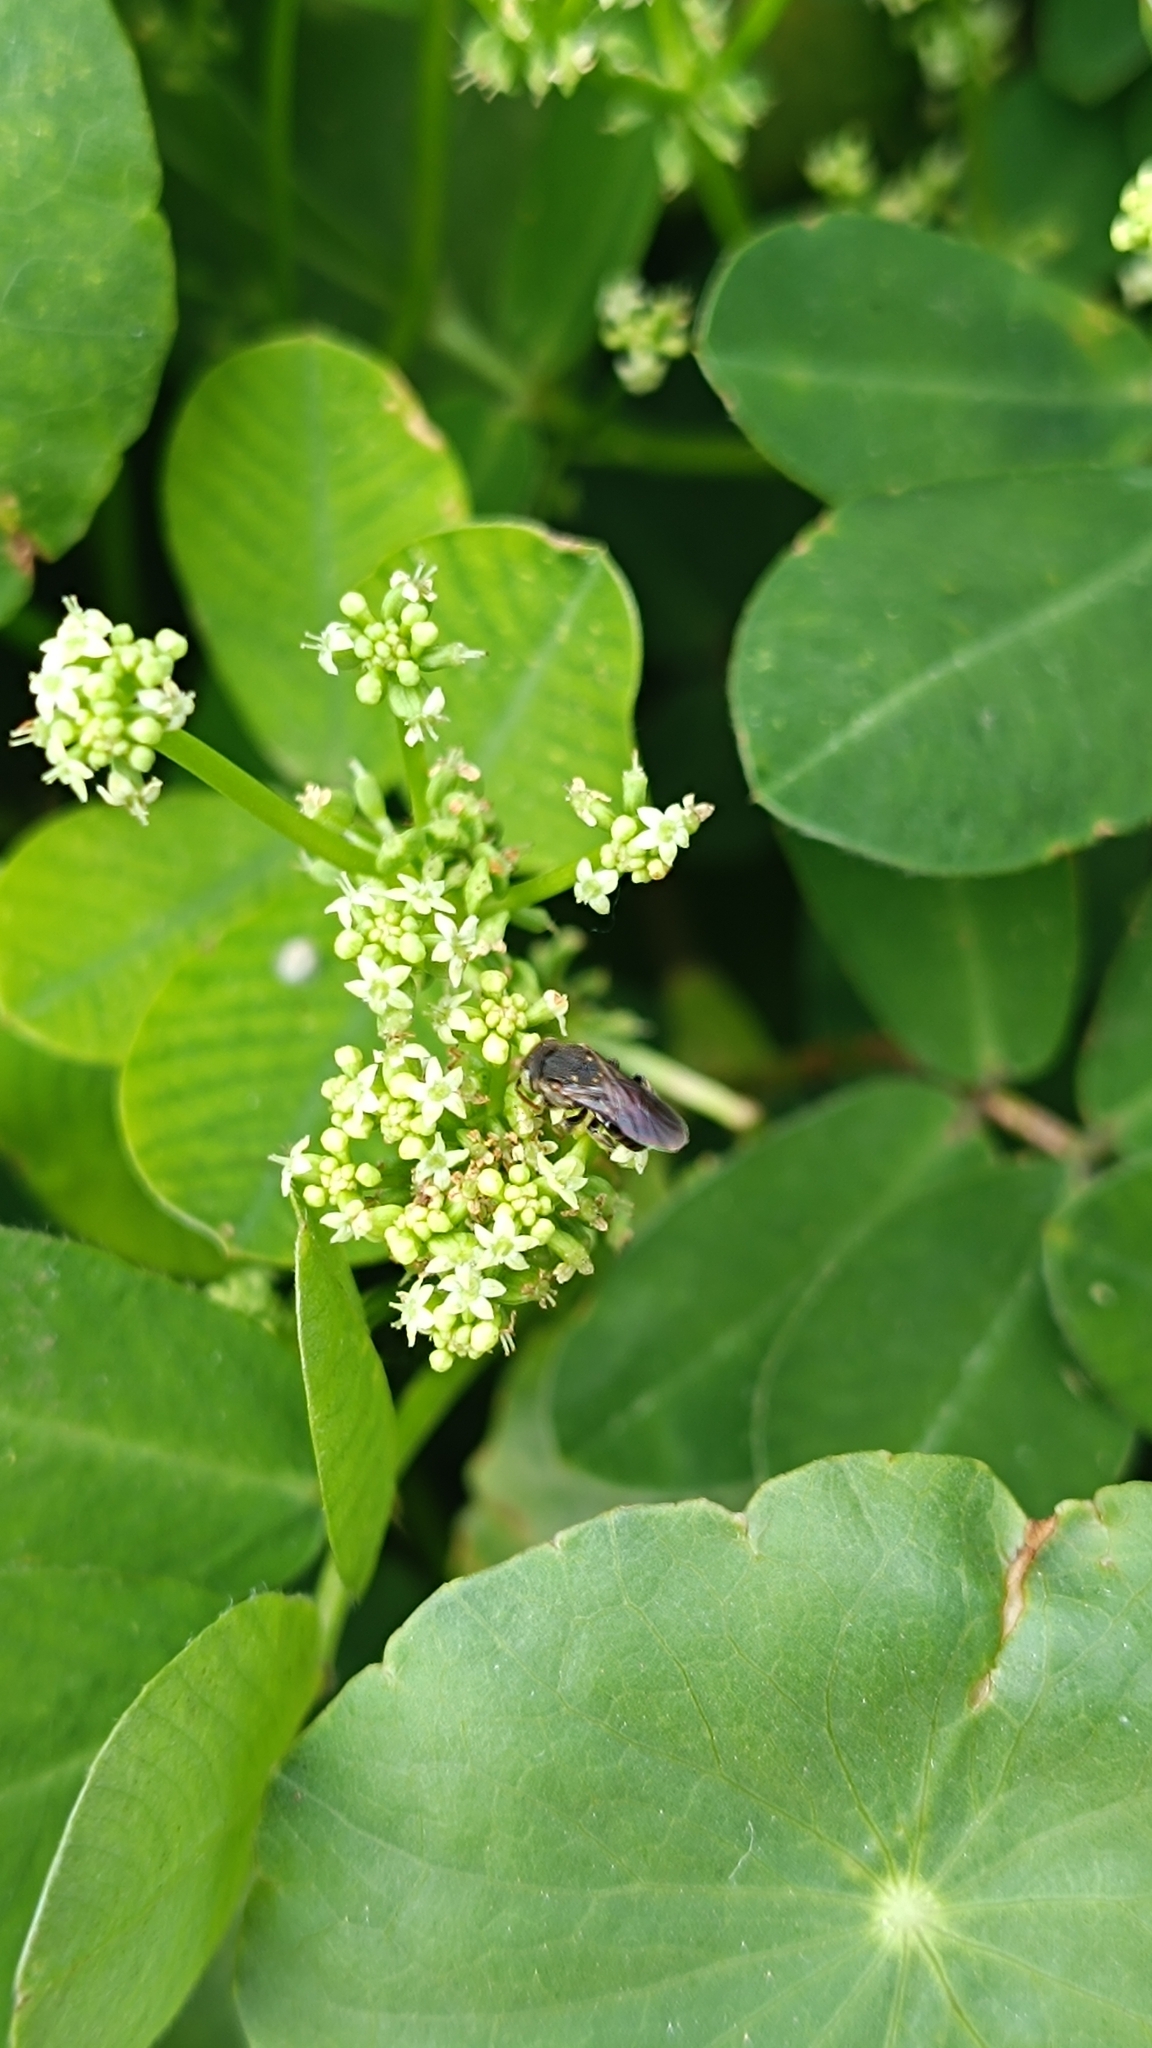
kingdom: Animalia
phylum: Arthropoda
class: Insecta
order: Hymenoptera
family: Apidae
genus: Nannotrigona
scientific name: Nannotrigona testaceicornis
